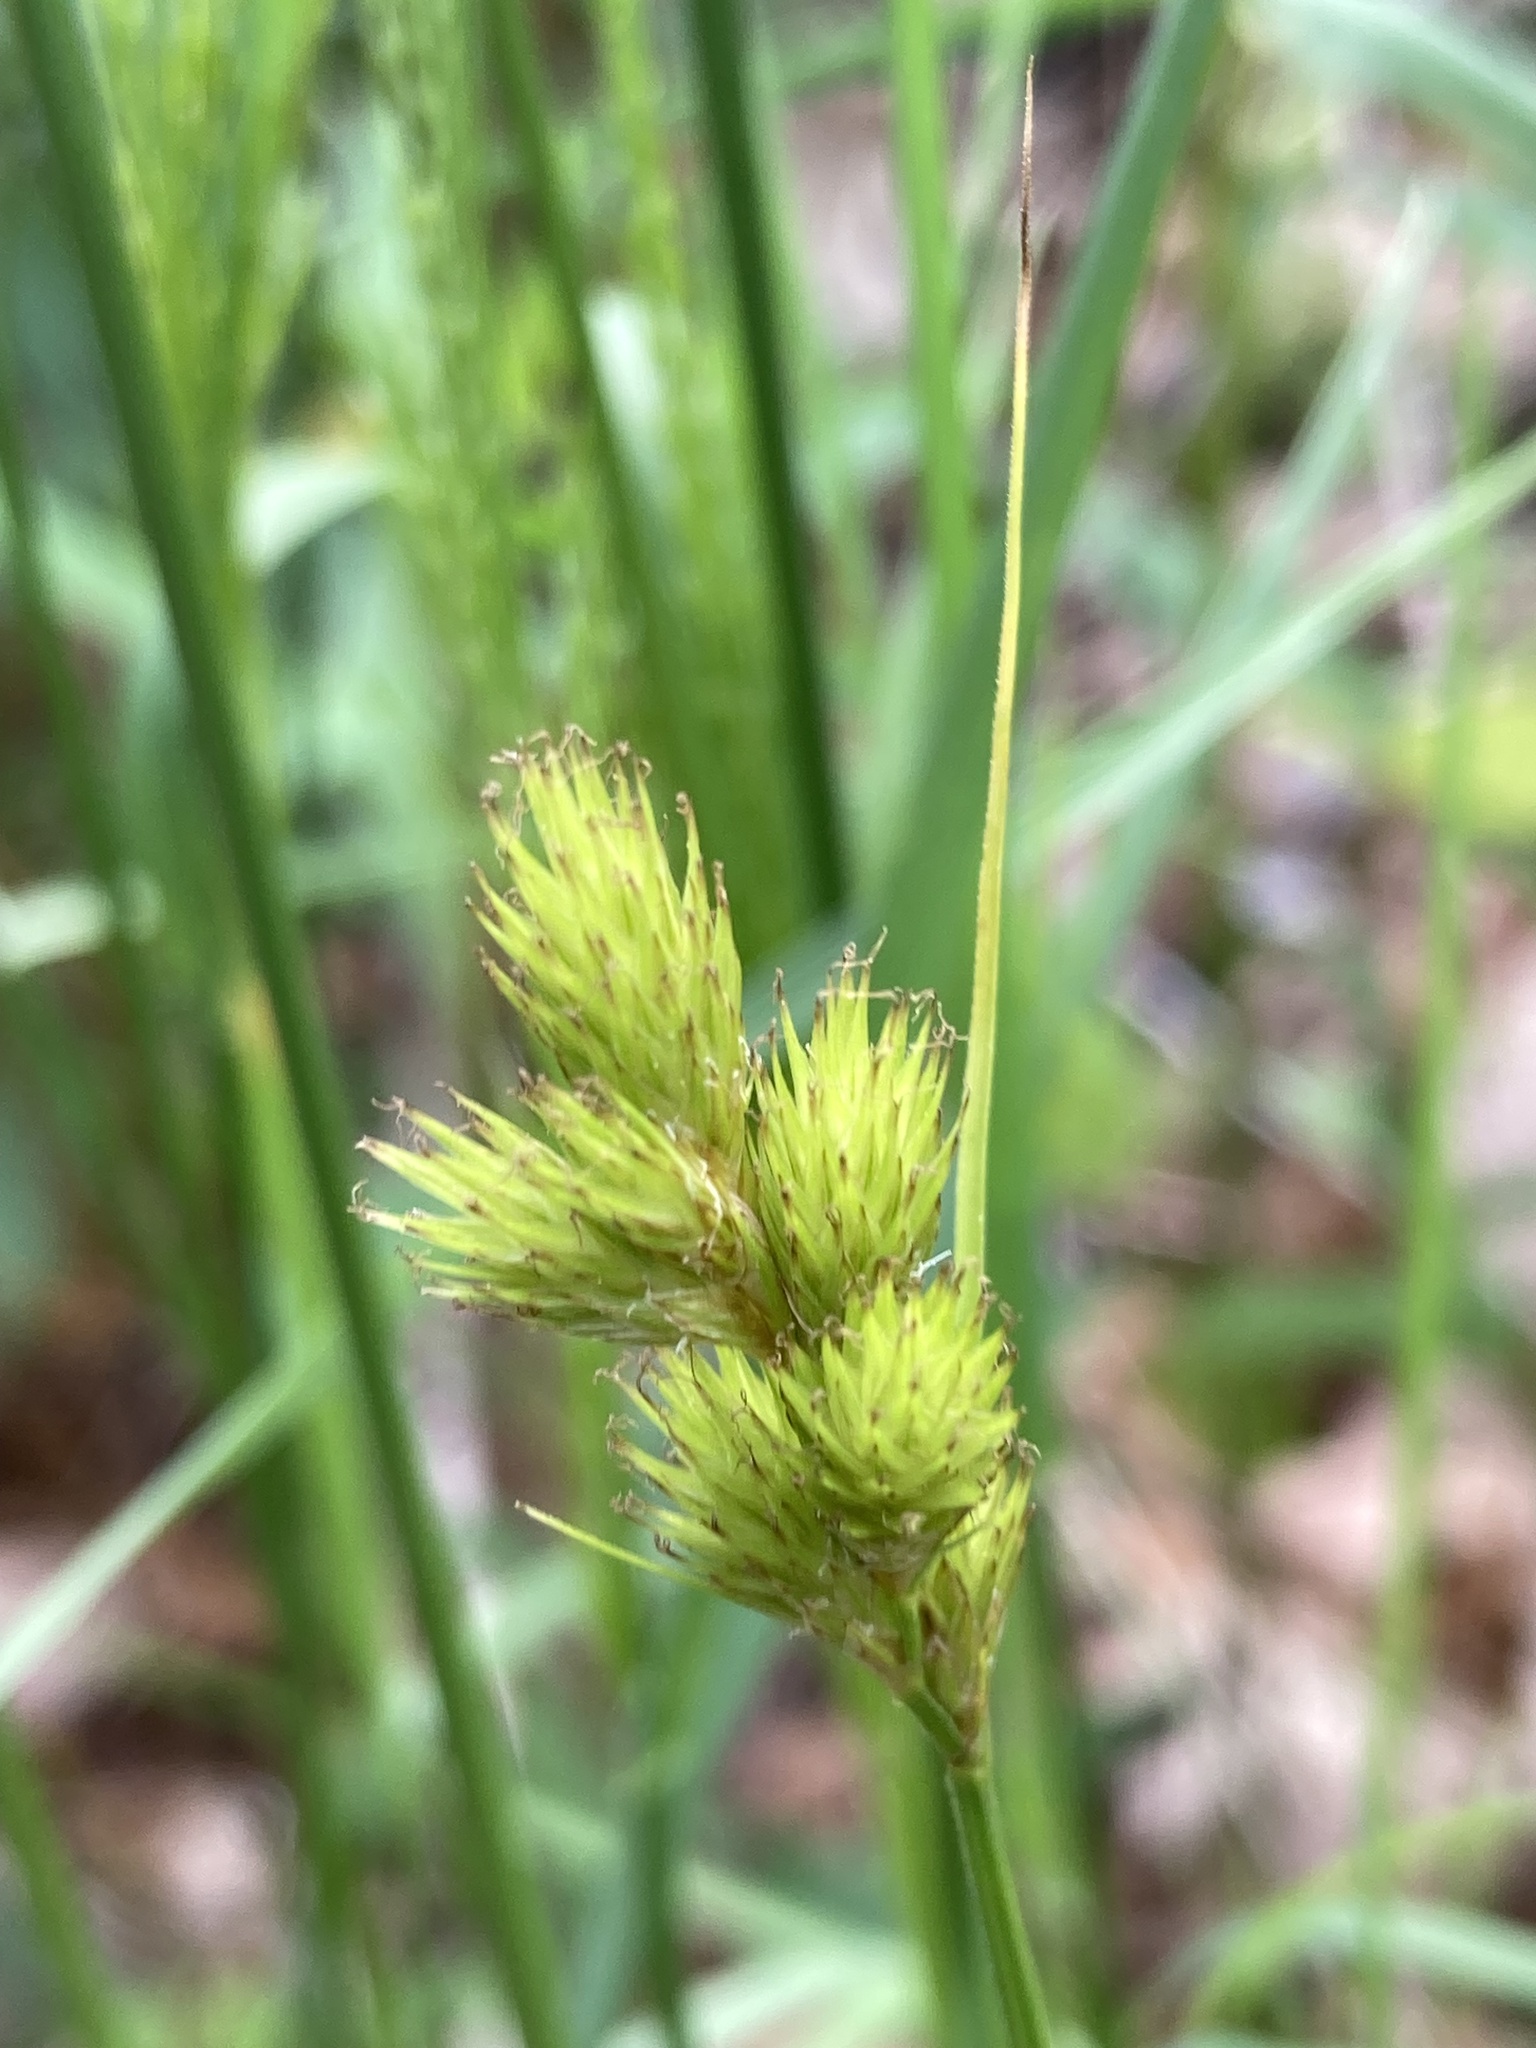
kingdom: Plantae
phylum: Tracheophyta
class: Liliopsida
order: Poales
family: Cyperaceae
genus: Carex
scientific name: Carex scoparia
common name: Broom sedge
